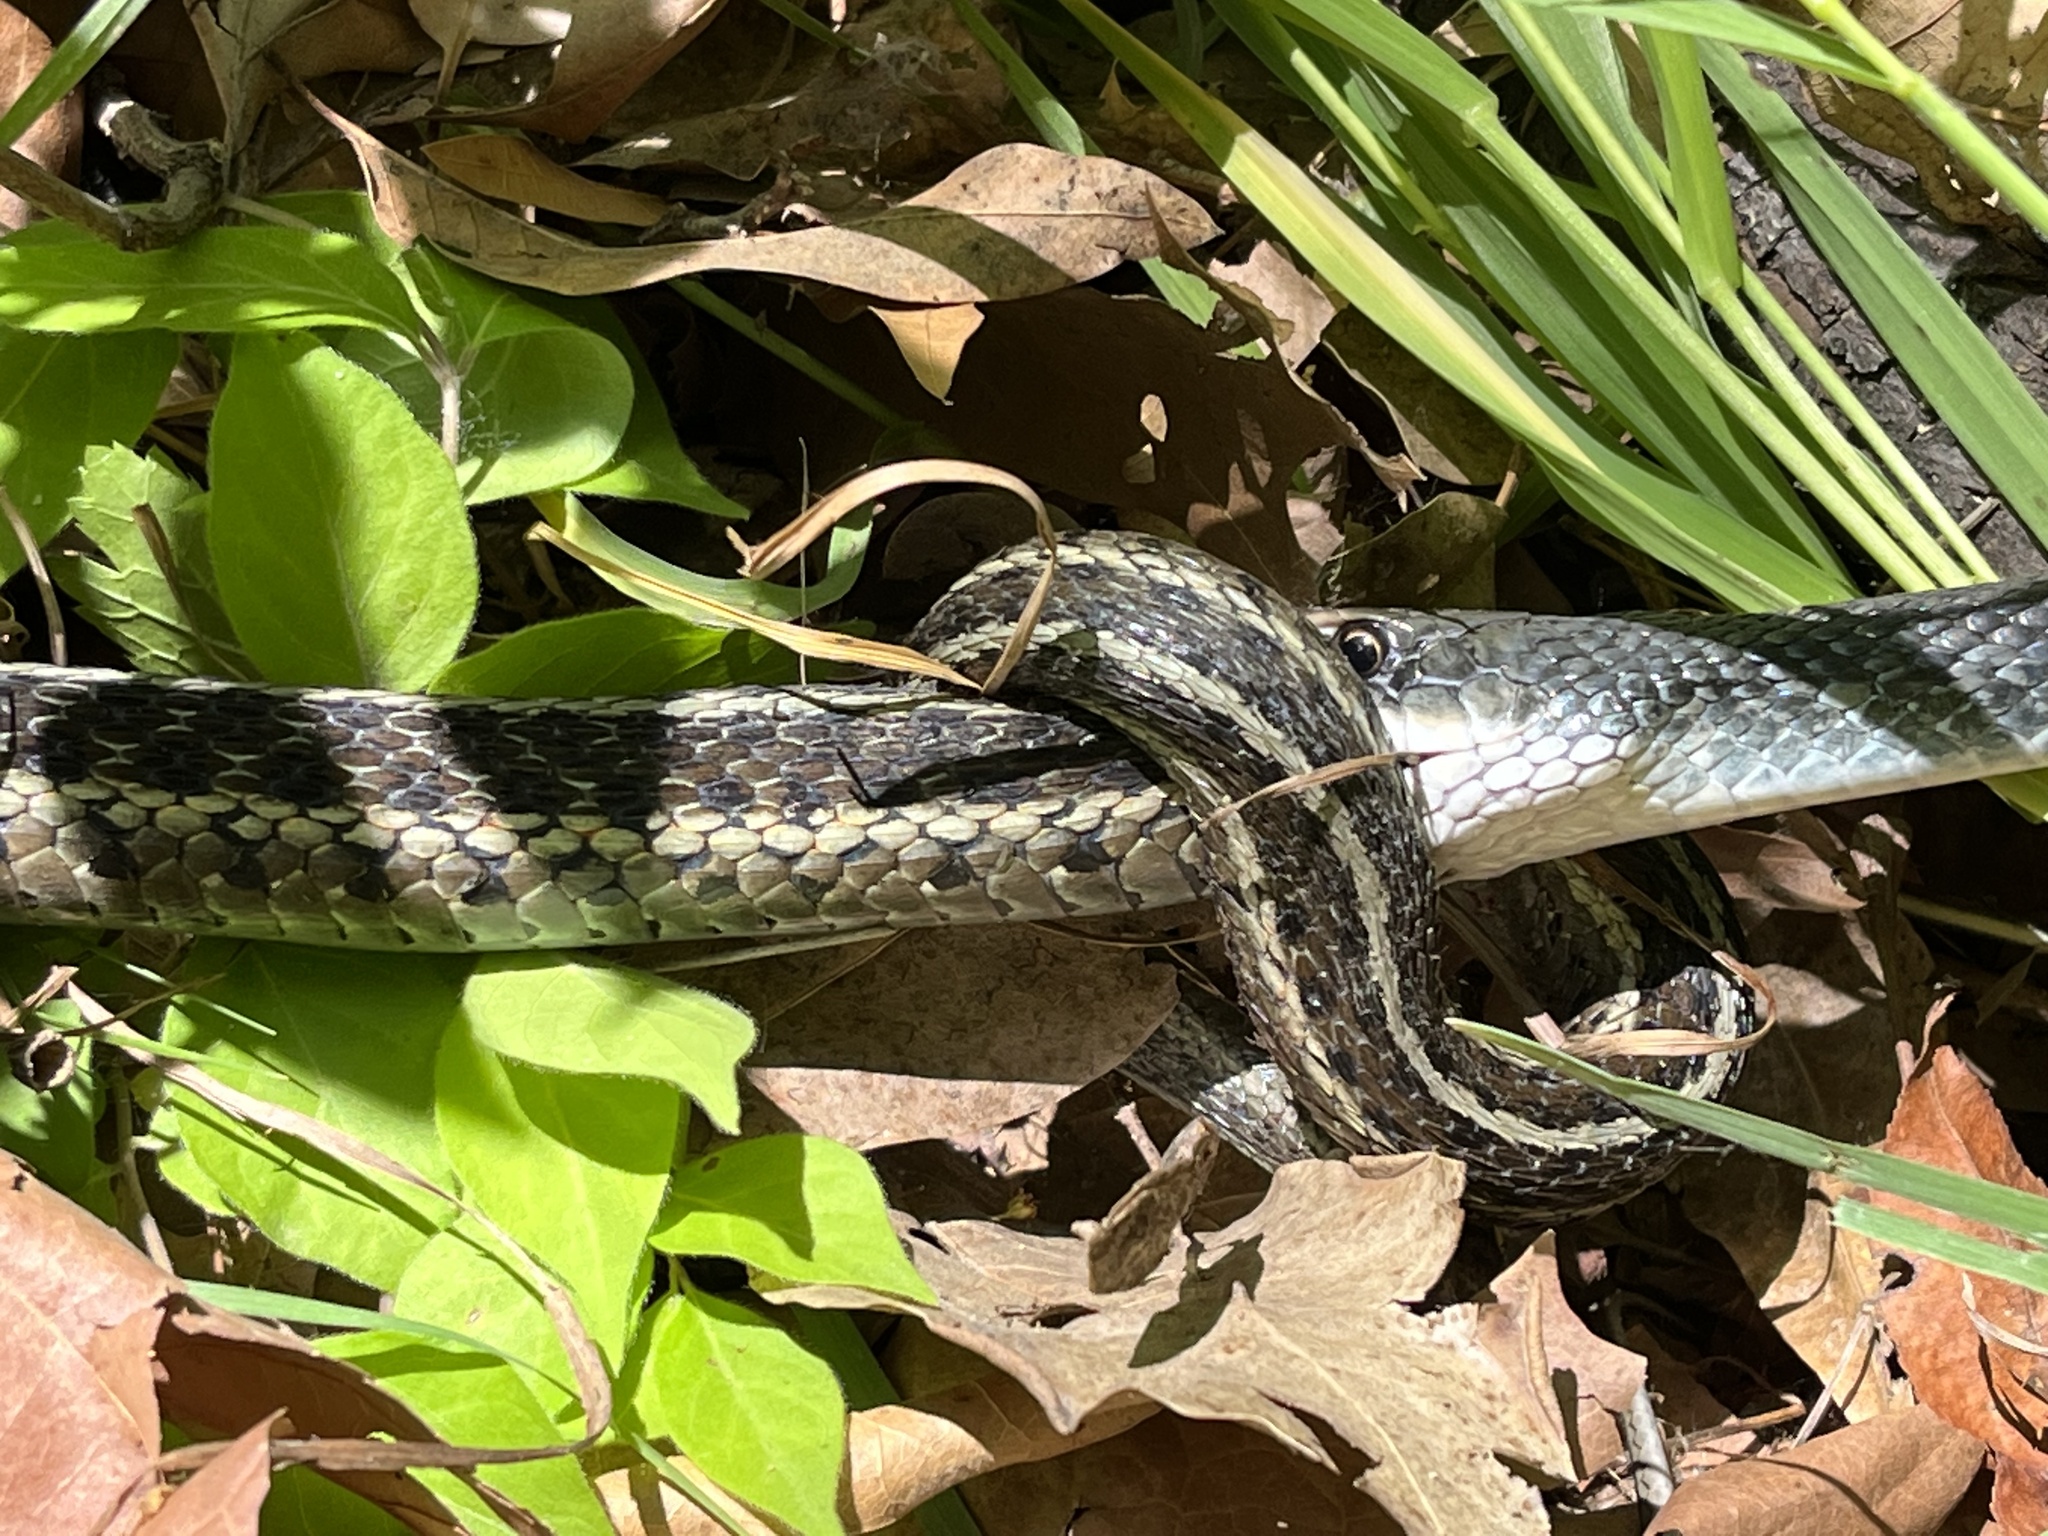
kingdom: Animalia
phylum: Chordata
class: Squamata
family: Colubridae
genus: Coluber
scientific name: Coluber constrictor
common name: Eastern racer
